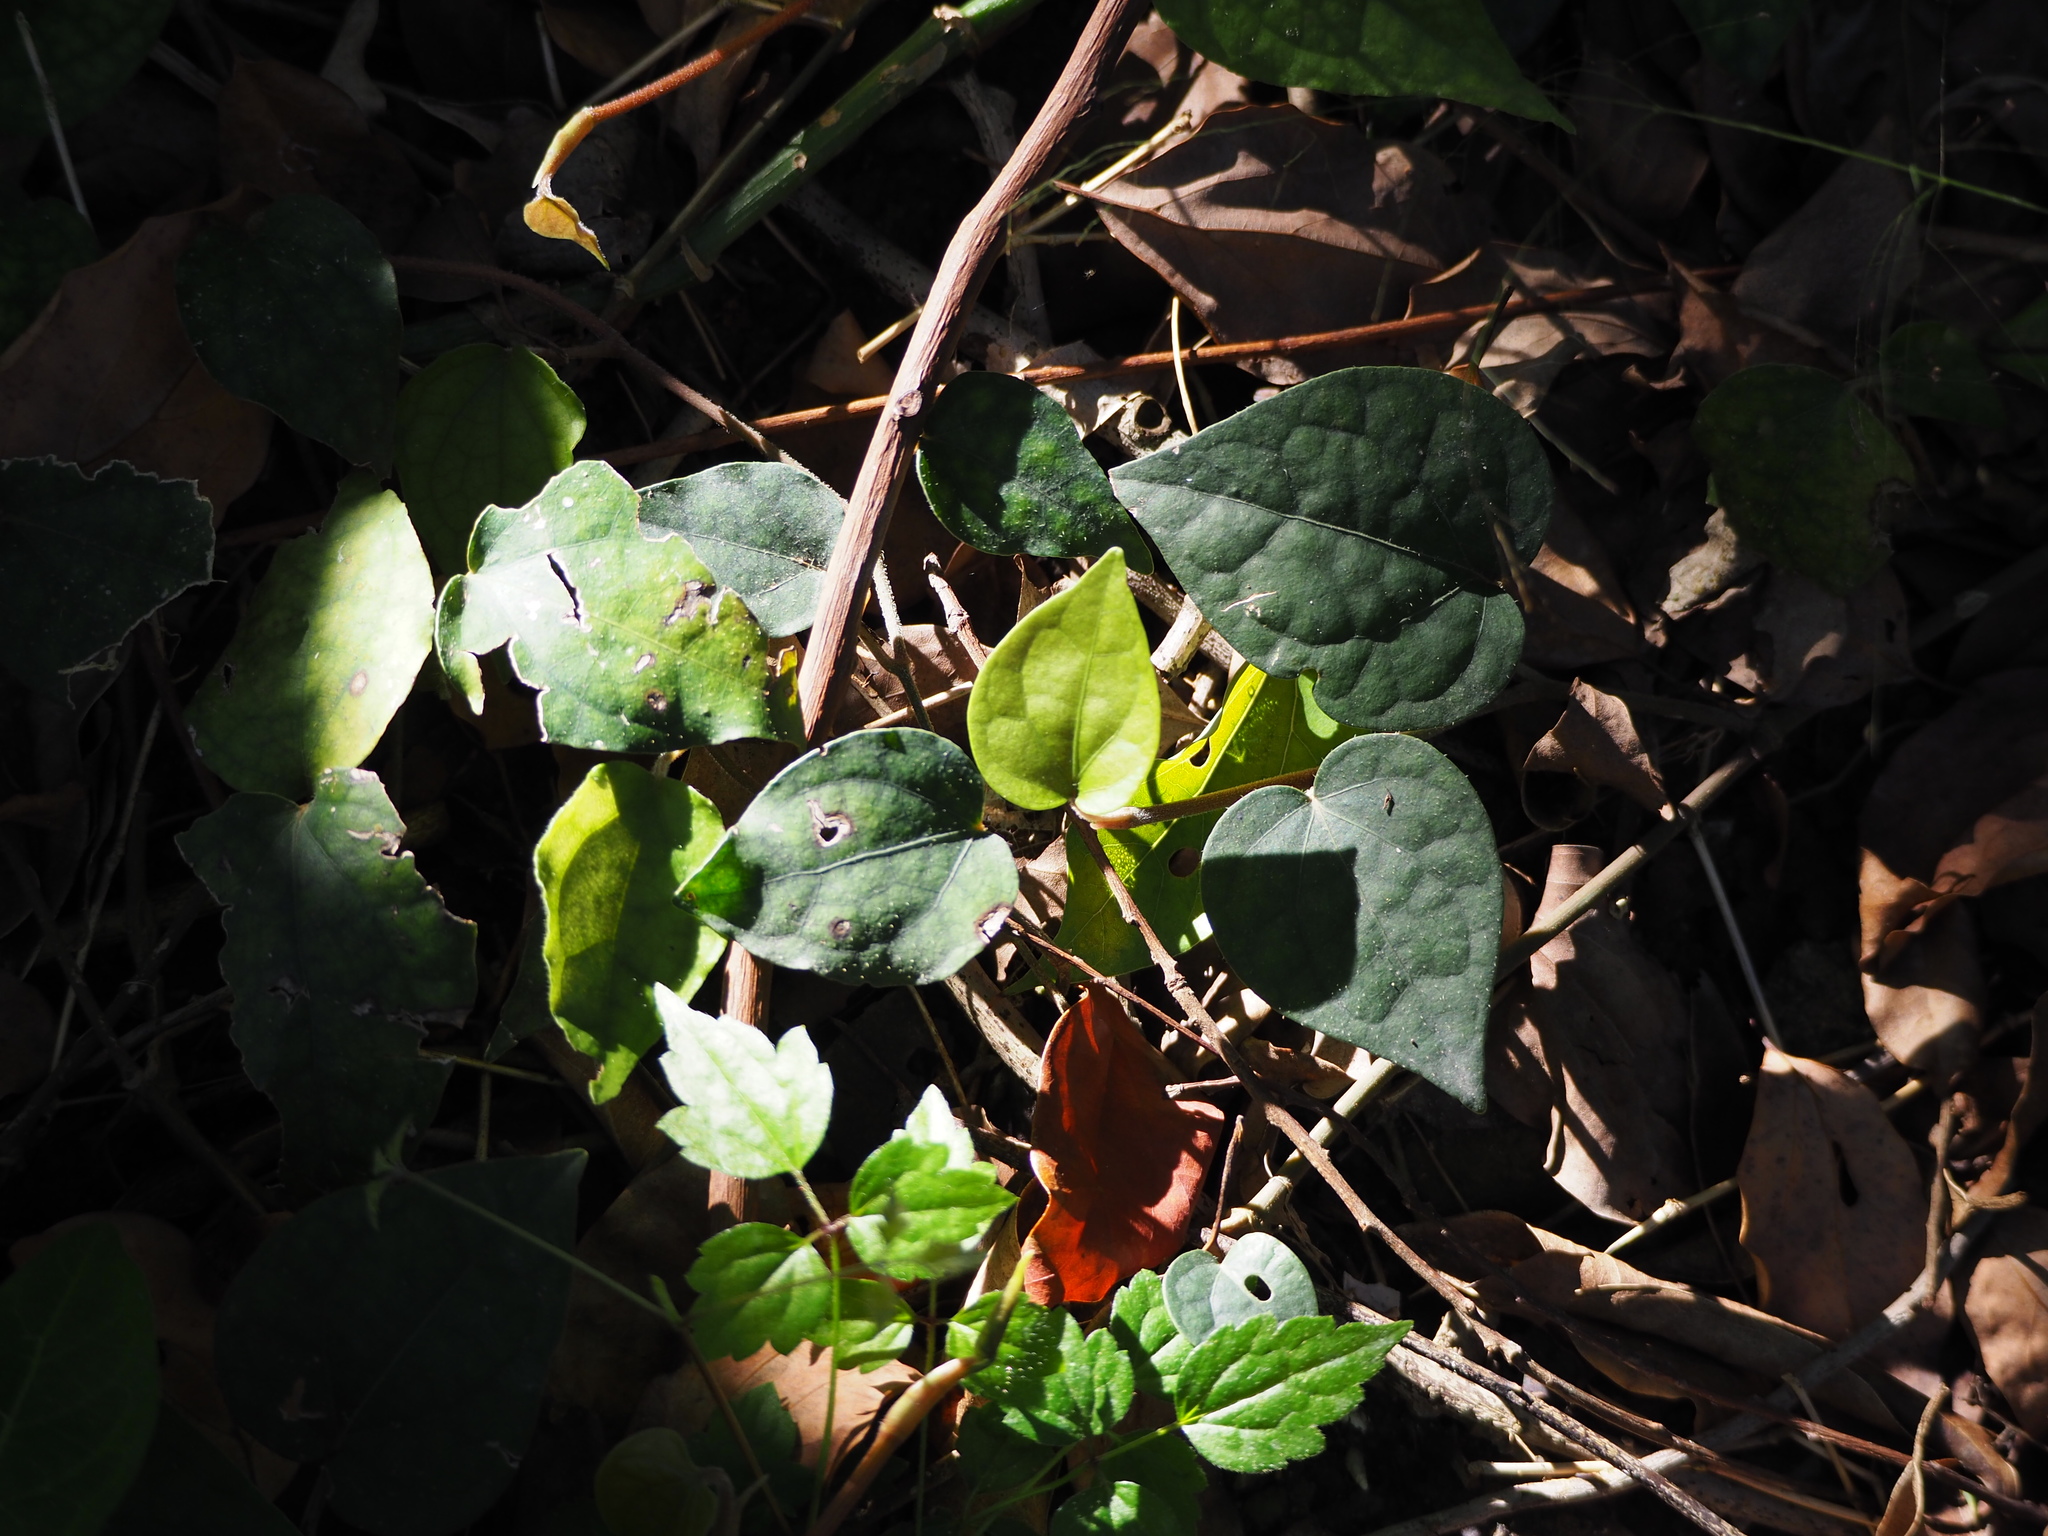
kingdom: Plantae
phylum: Tracheophyta
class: Magnoliopsida
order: Piperales
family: Piperaceae
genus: Piper
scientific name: Piper kadsura
